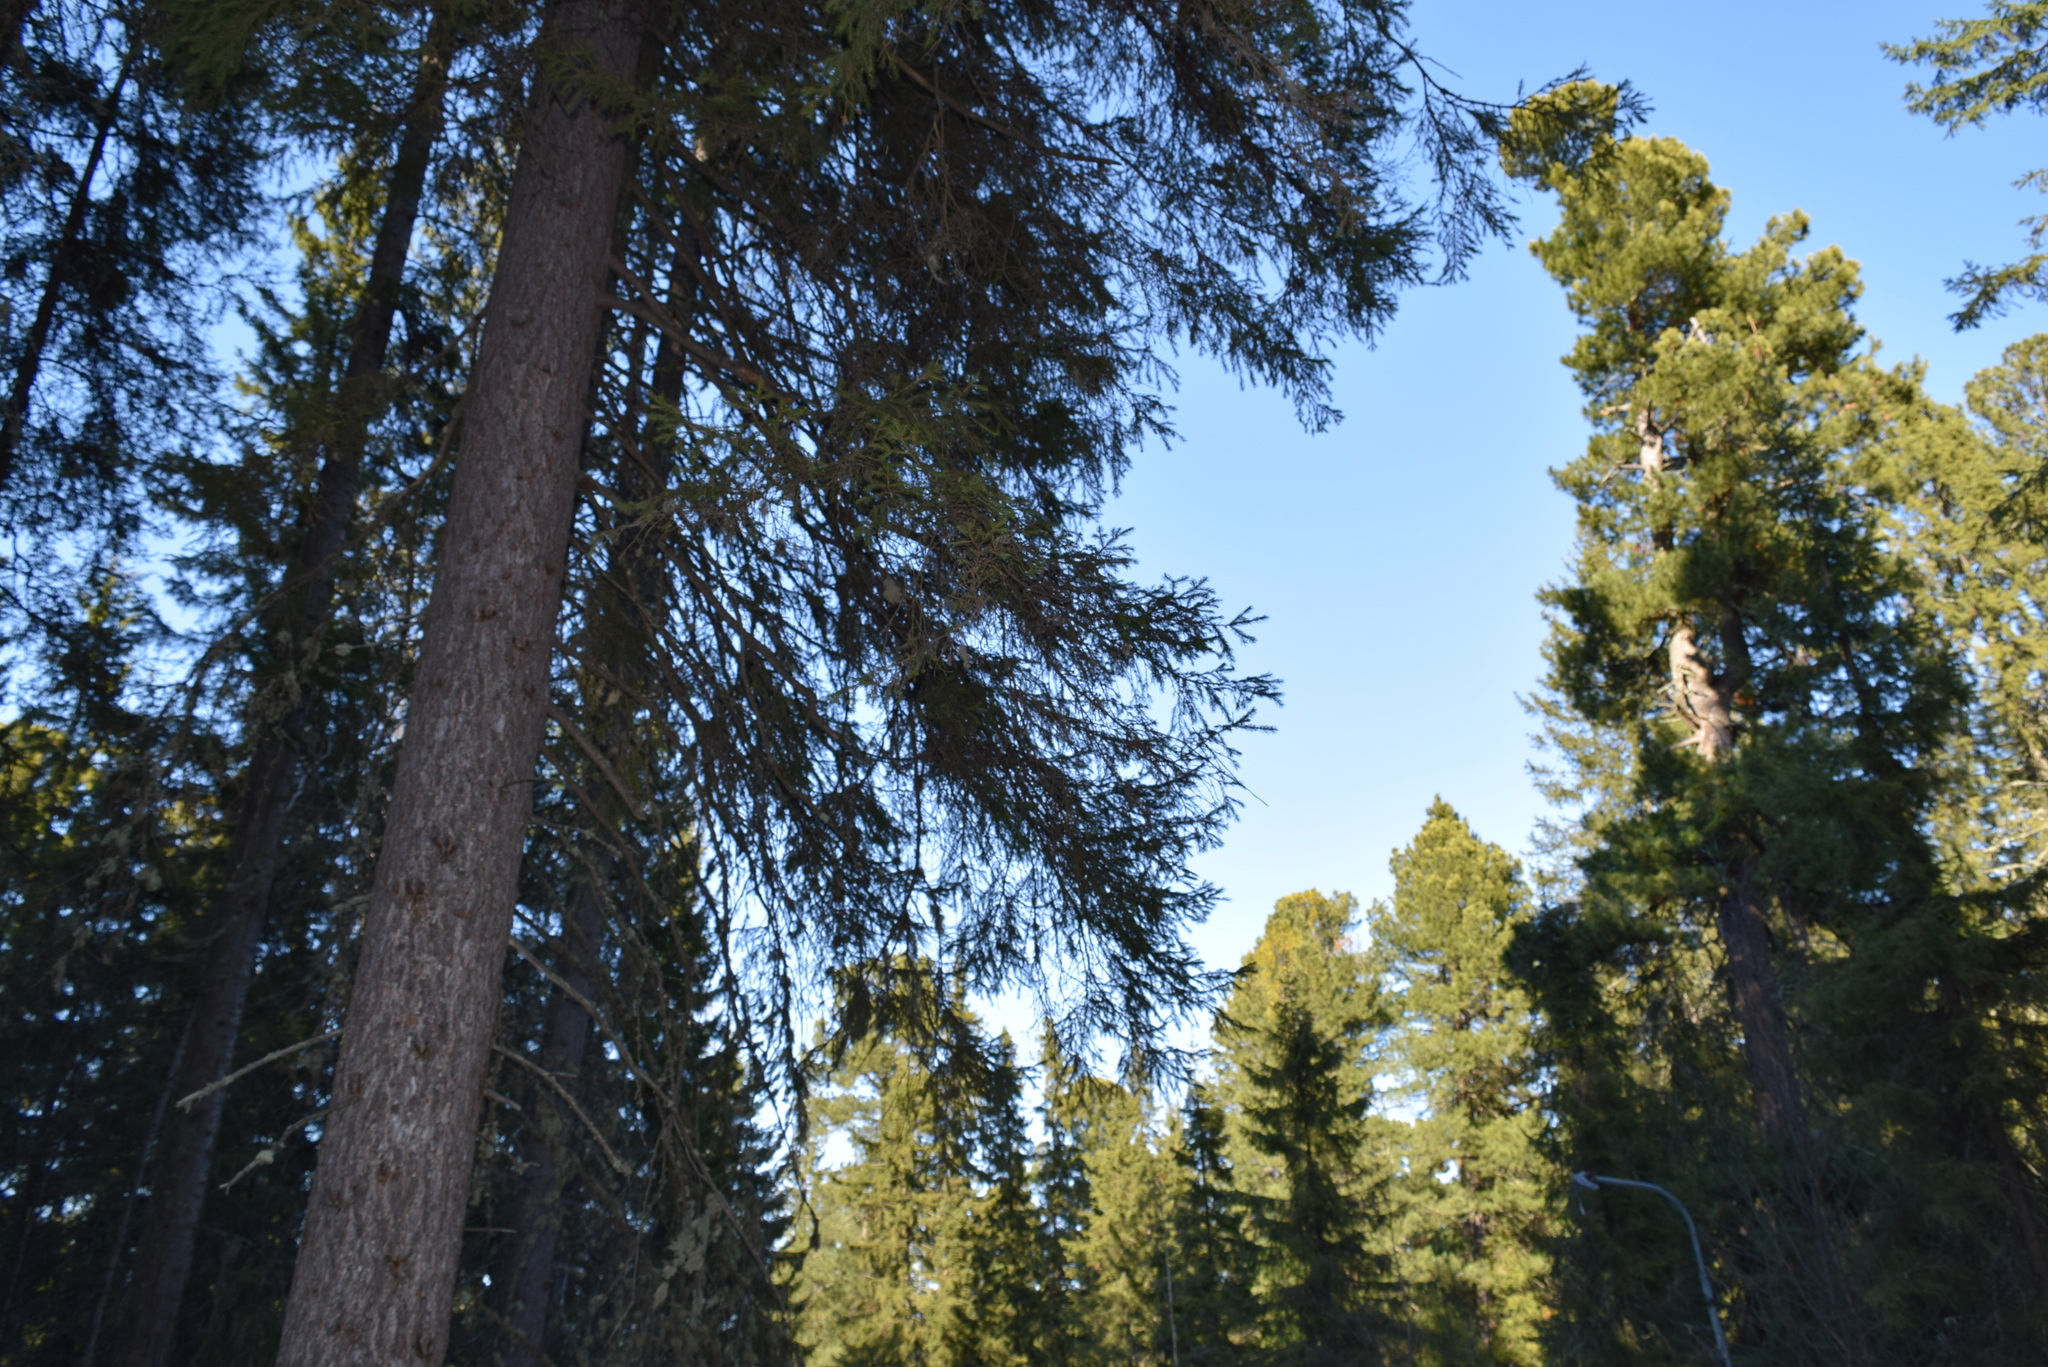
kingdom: Plantae
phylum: Tracheophyta
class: Pinopsida
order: Pinales
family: Pinaceae
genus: Picea
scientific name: Picea obovata
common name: Siberian spruce
